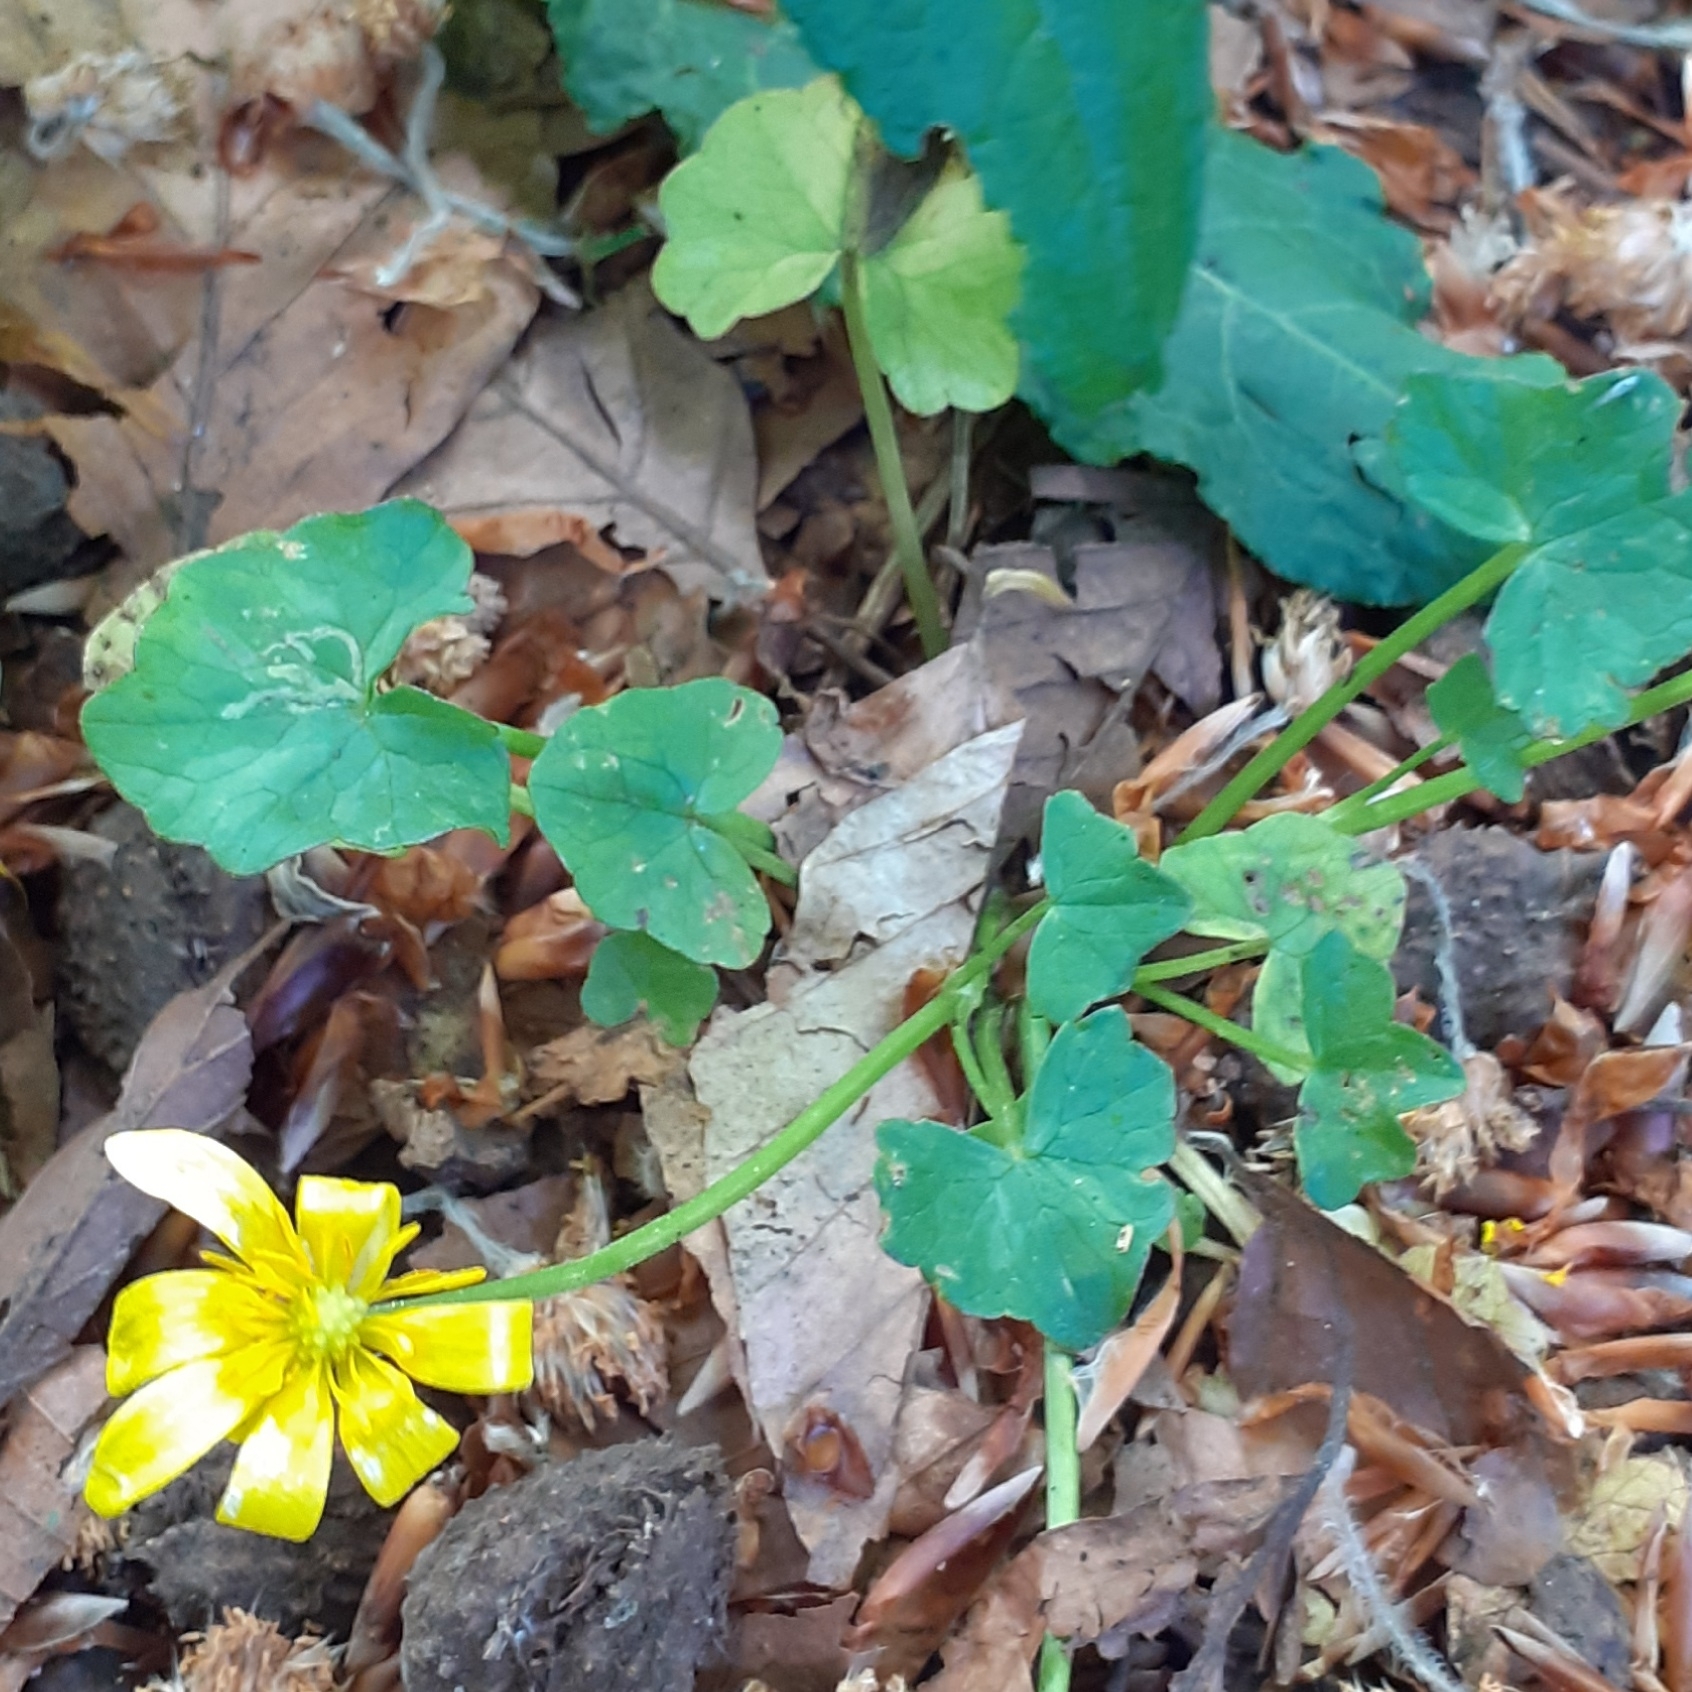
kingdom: Plantae
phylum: Tracheophyta
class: Magnoliopsida
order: Ranunculales
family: Ranunculaceae
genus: Ficaria
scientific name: Ficaria verna
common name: Lesser celandine
